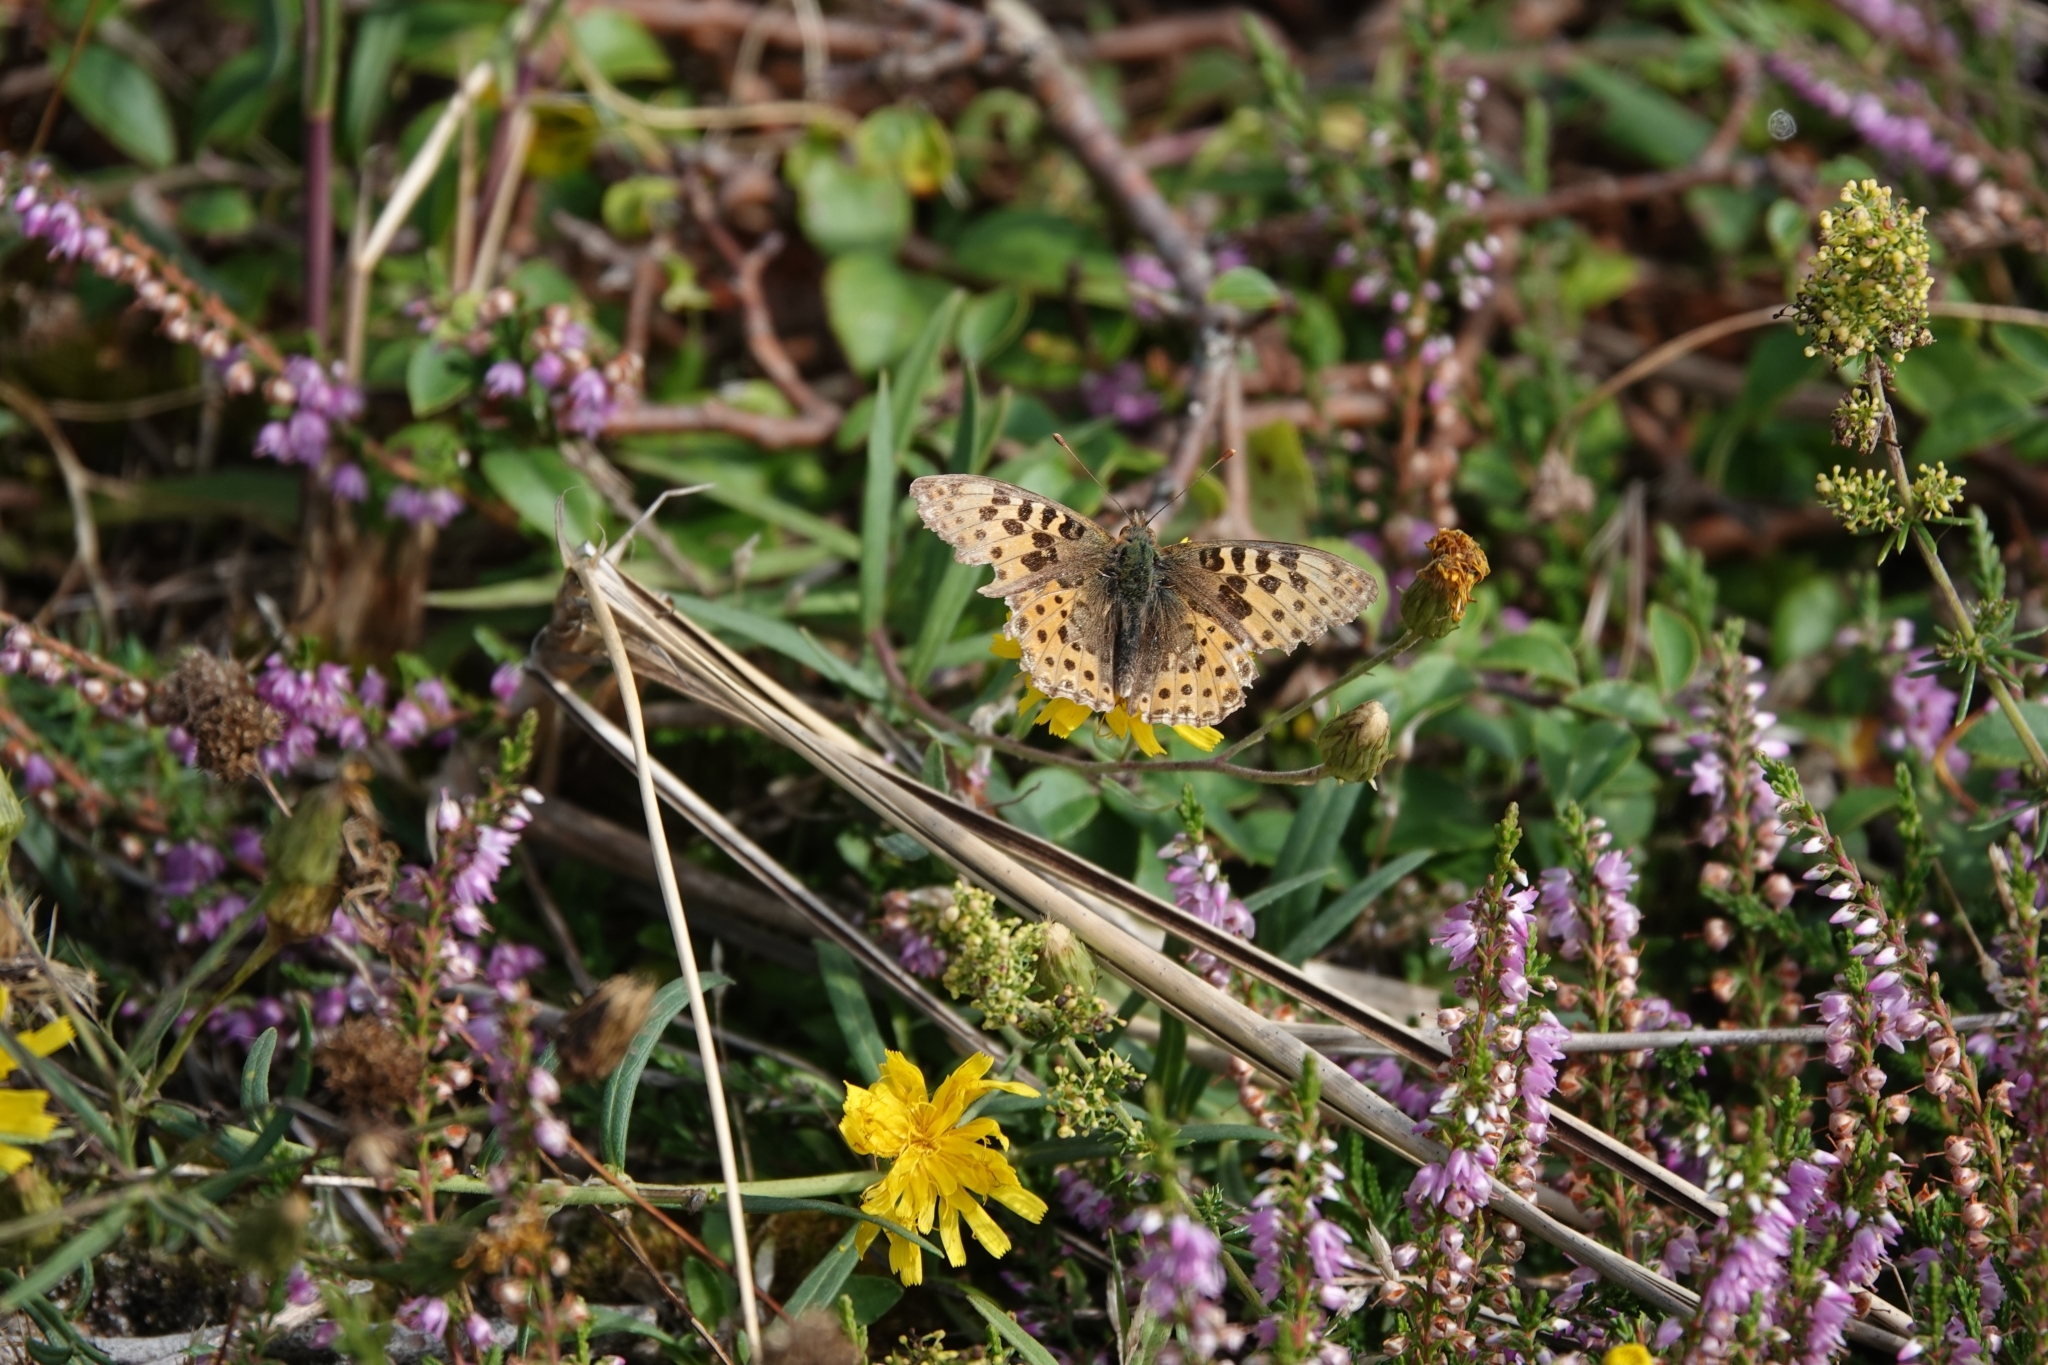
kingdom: Animalia
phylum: Arthropoda
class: Insecta
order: Lepidoptera
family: Nymphalidae
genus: Issoria
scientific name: Issoria lathonia
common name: Queen of spain fritillary
